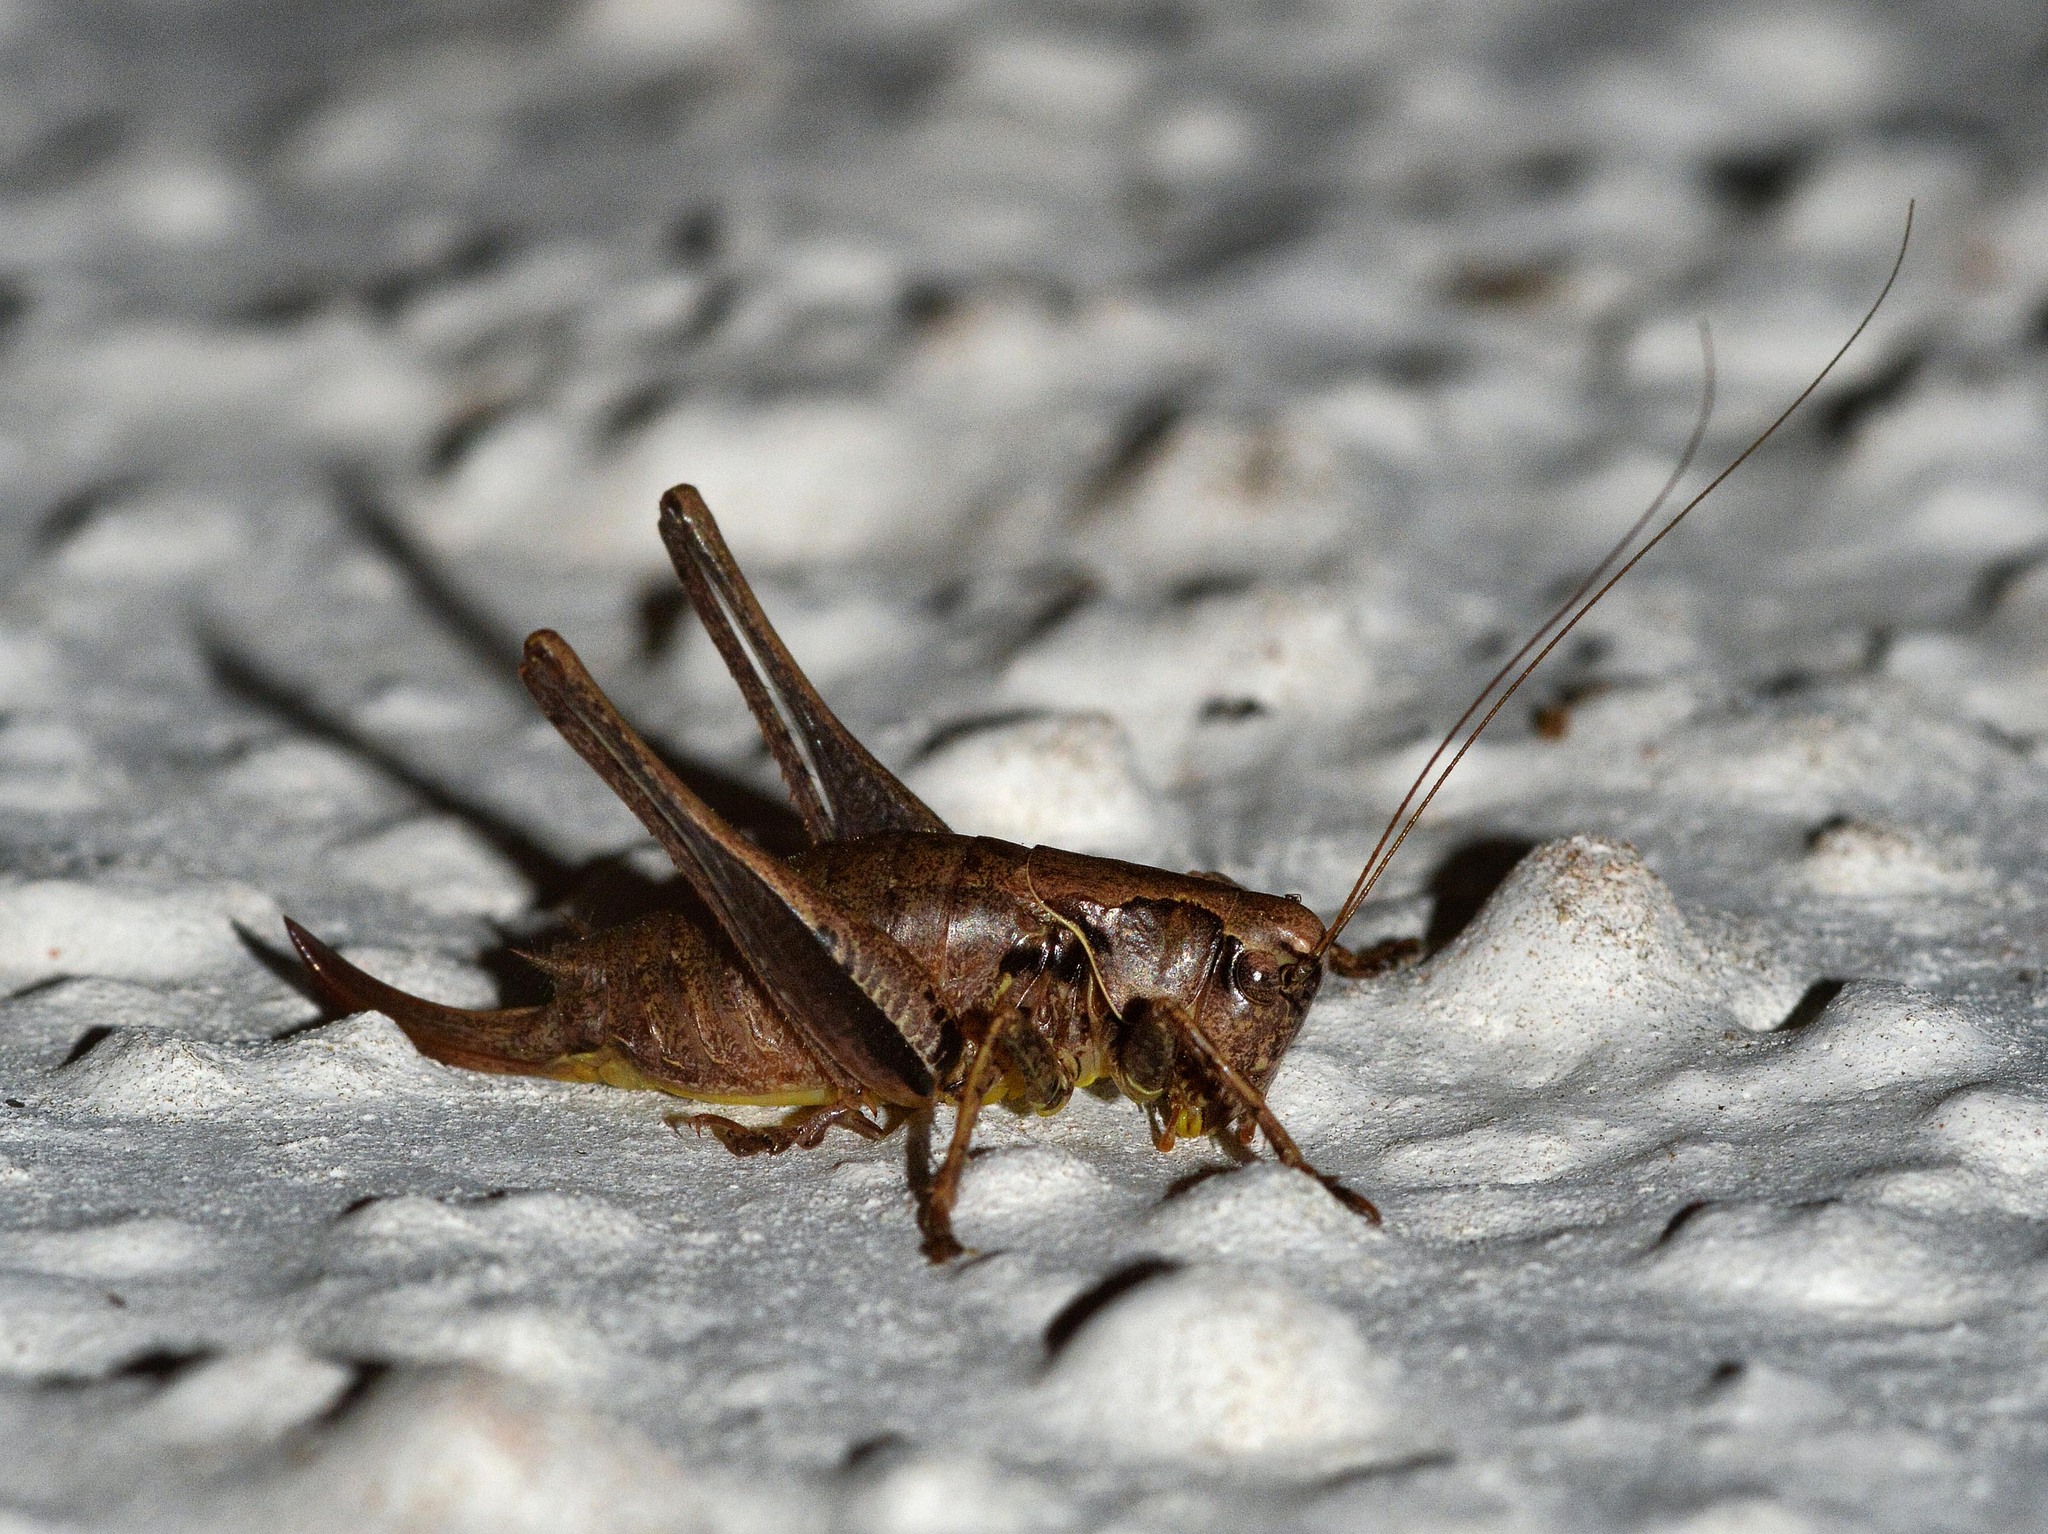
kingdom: Animalia
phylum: Arthropoda
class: Insecta
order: Orthoptera
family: Tettigoniidae
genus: Pholidoptera
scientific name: Pholidoptera griseoaptera
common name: Dark bush-cricket
